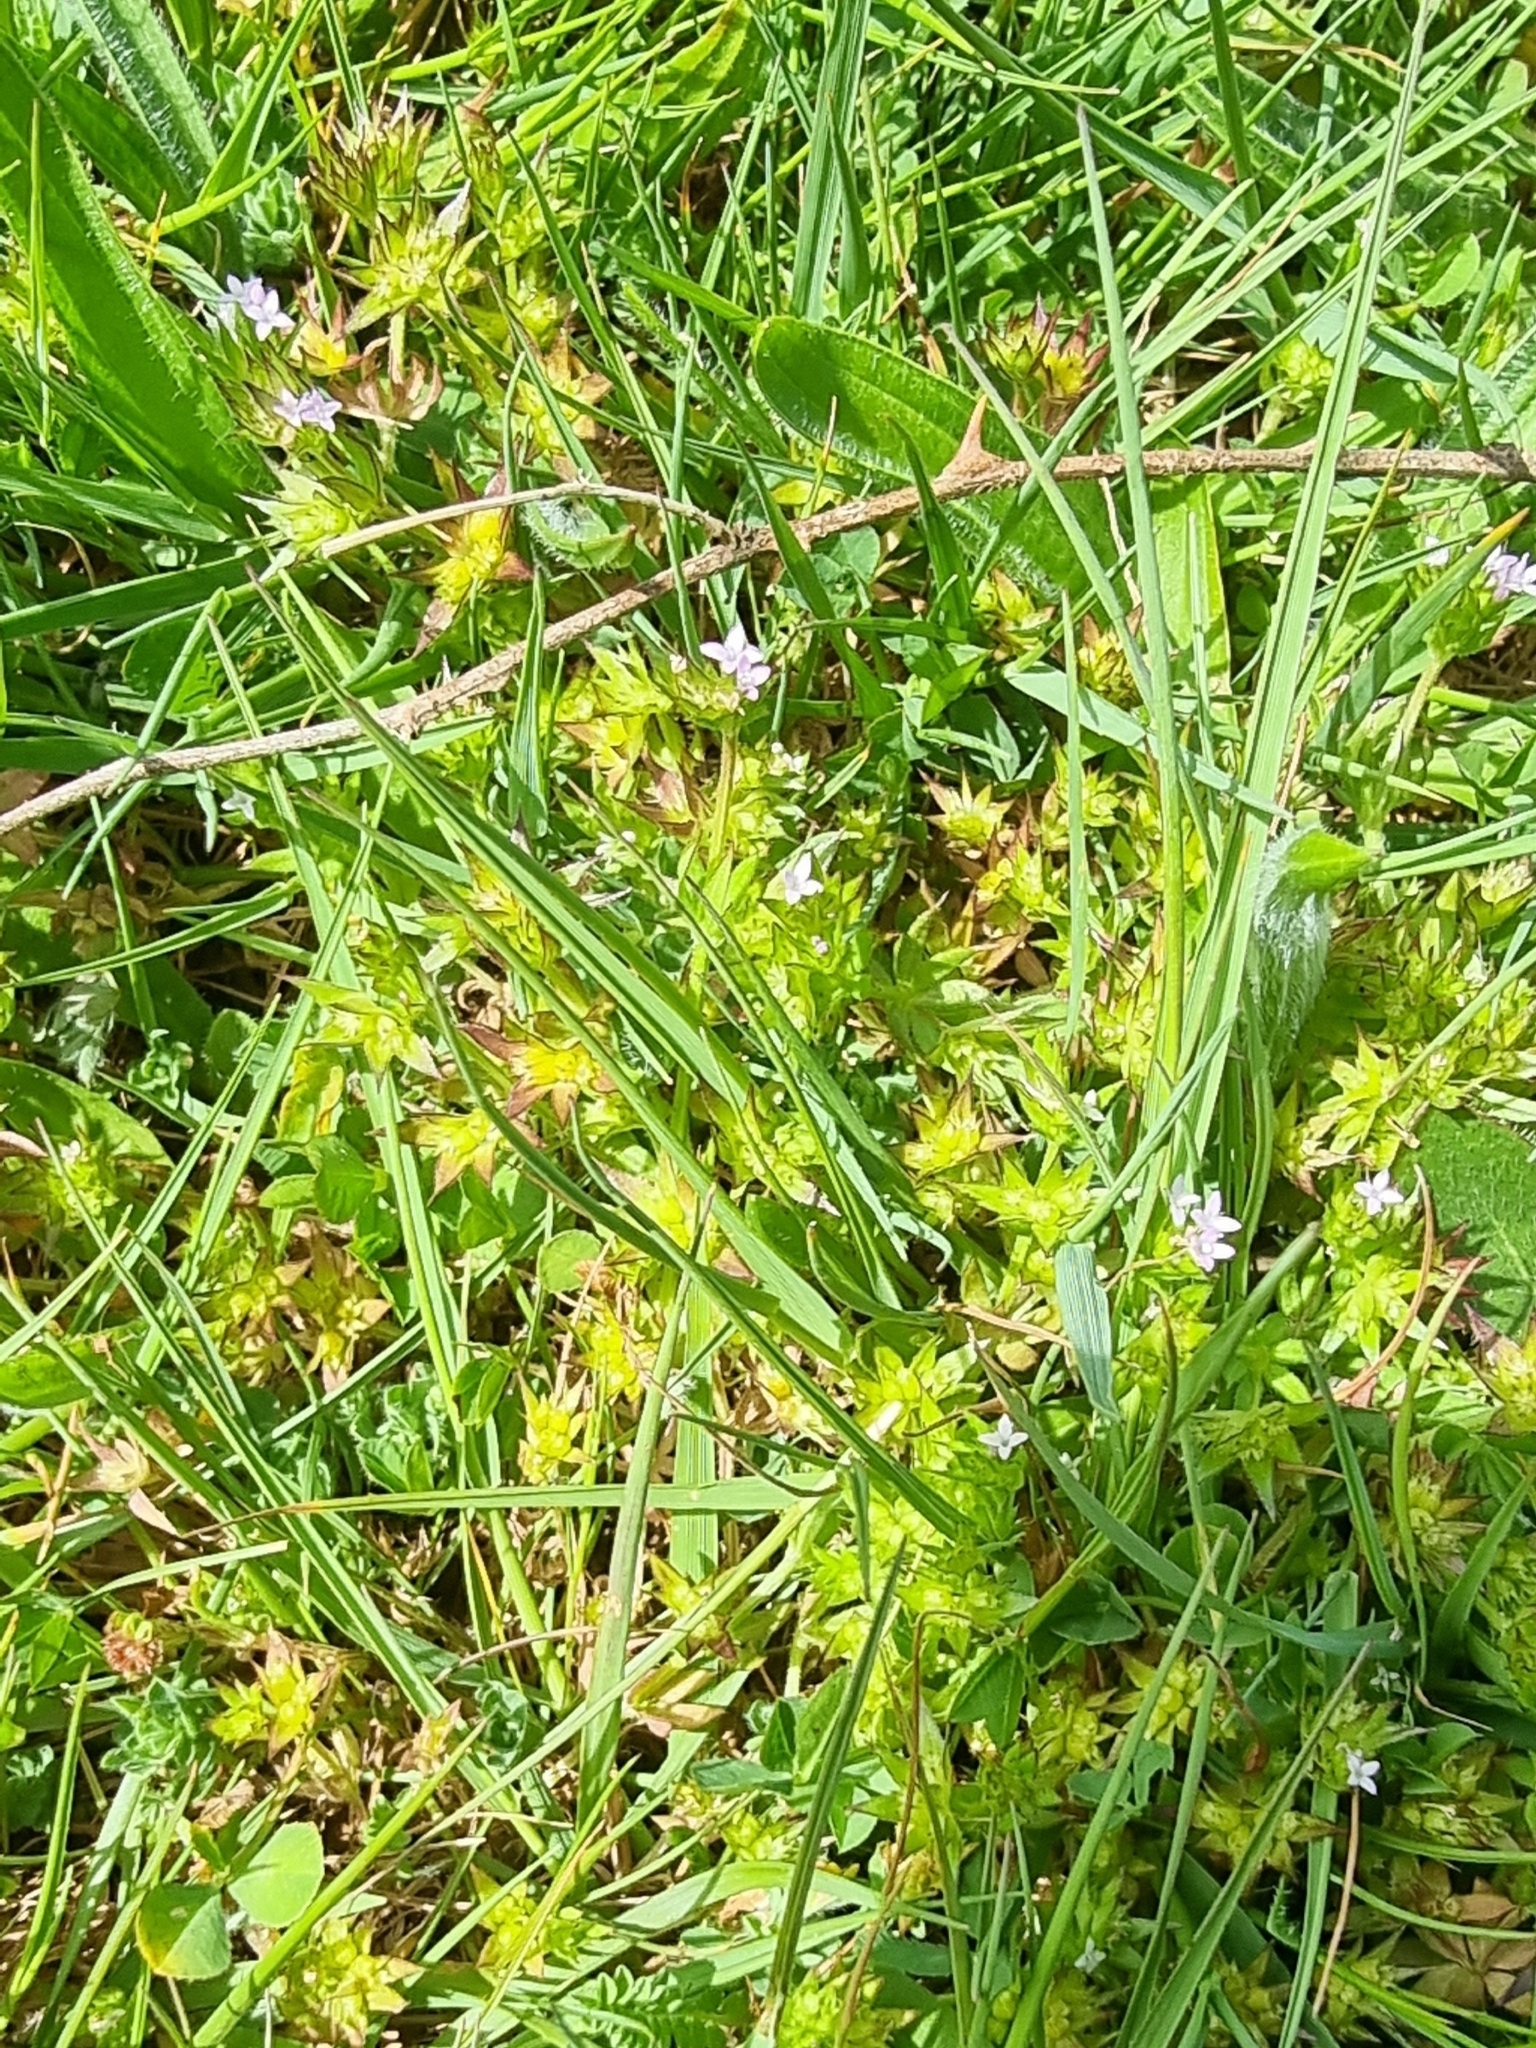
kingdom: Plantae
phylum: Tracheophyta
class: Magnoliopsida
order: Gentianales
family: Rubiaceae
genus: Sherardia
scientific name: Sherardia arvensis
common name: Field madder
